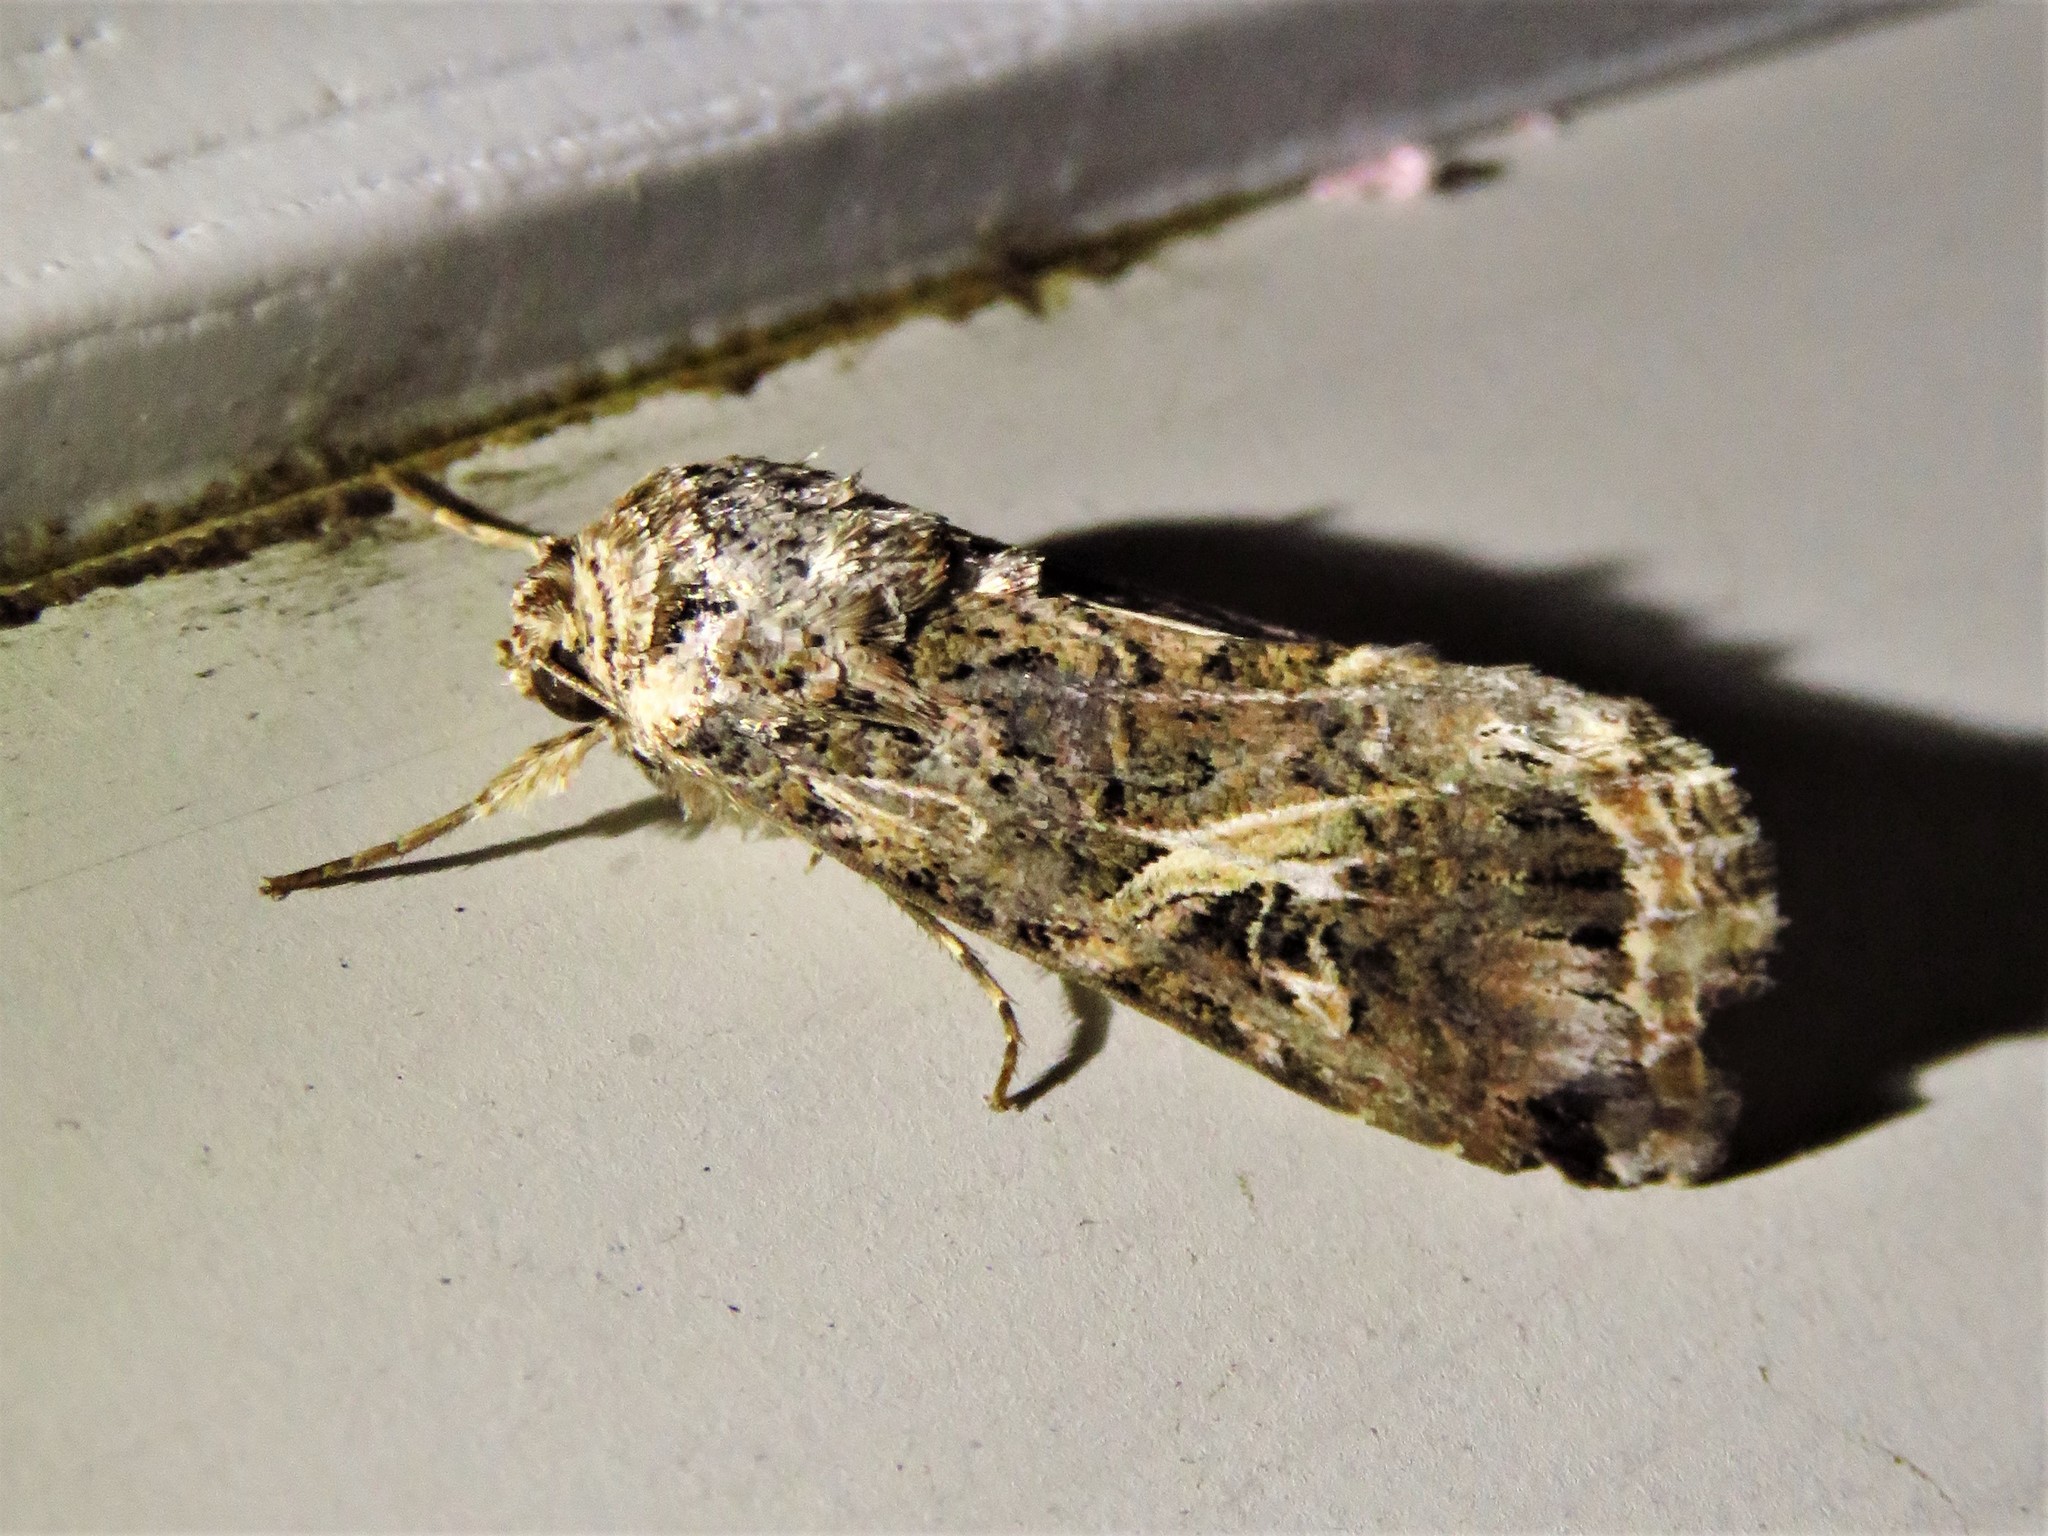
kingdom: Animalia
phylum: Arthropoda
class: Insecta
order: Lepidoptera
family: Noctuidae
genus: Spodoptera
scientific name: Spodoptera ornithogalli
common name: Yellow-striped armyworm
